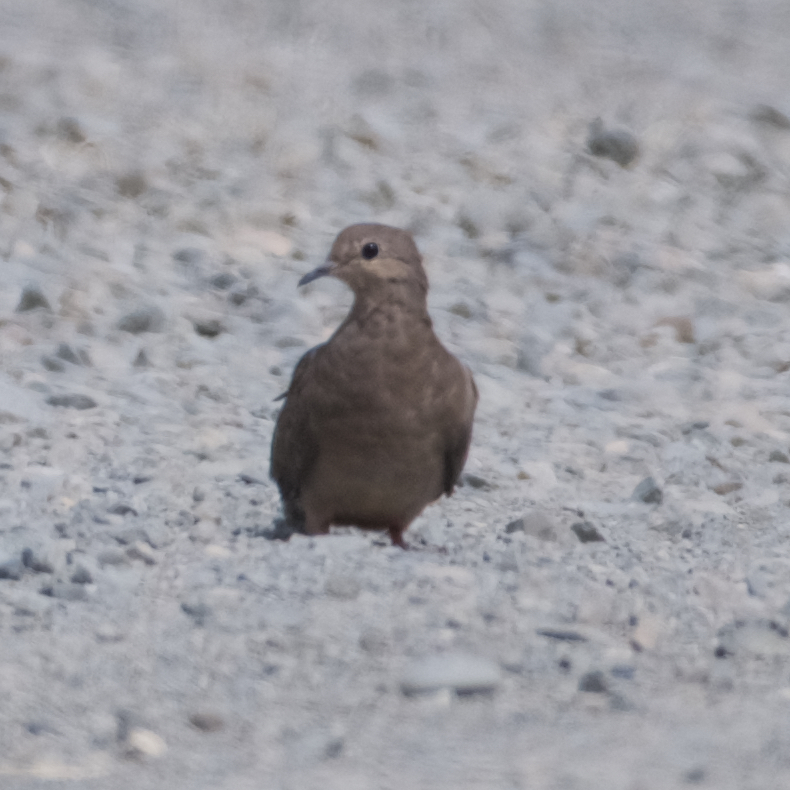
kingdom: Animalia
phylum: Chordata
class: Aves
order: Columbiformes
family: Columbidae
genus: Zenaida
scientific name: Zenaida macroura
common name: Mourning dove
